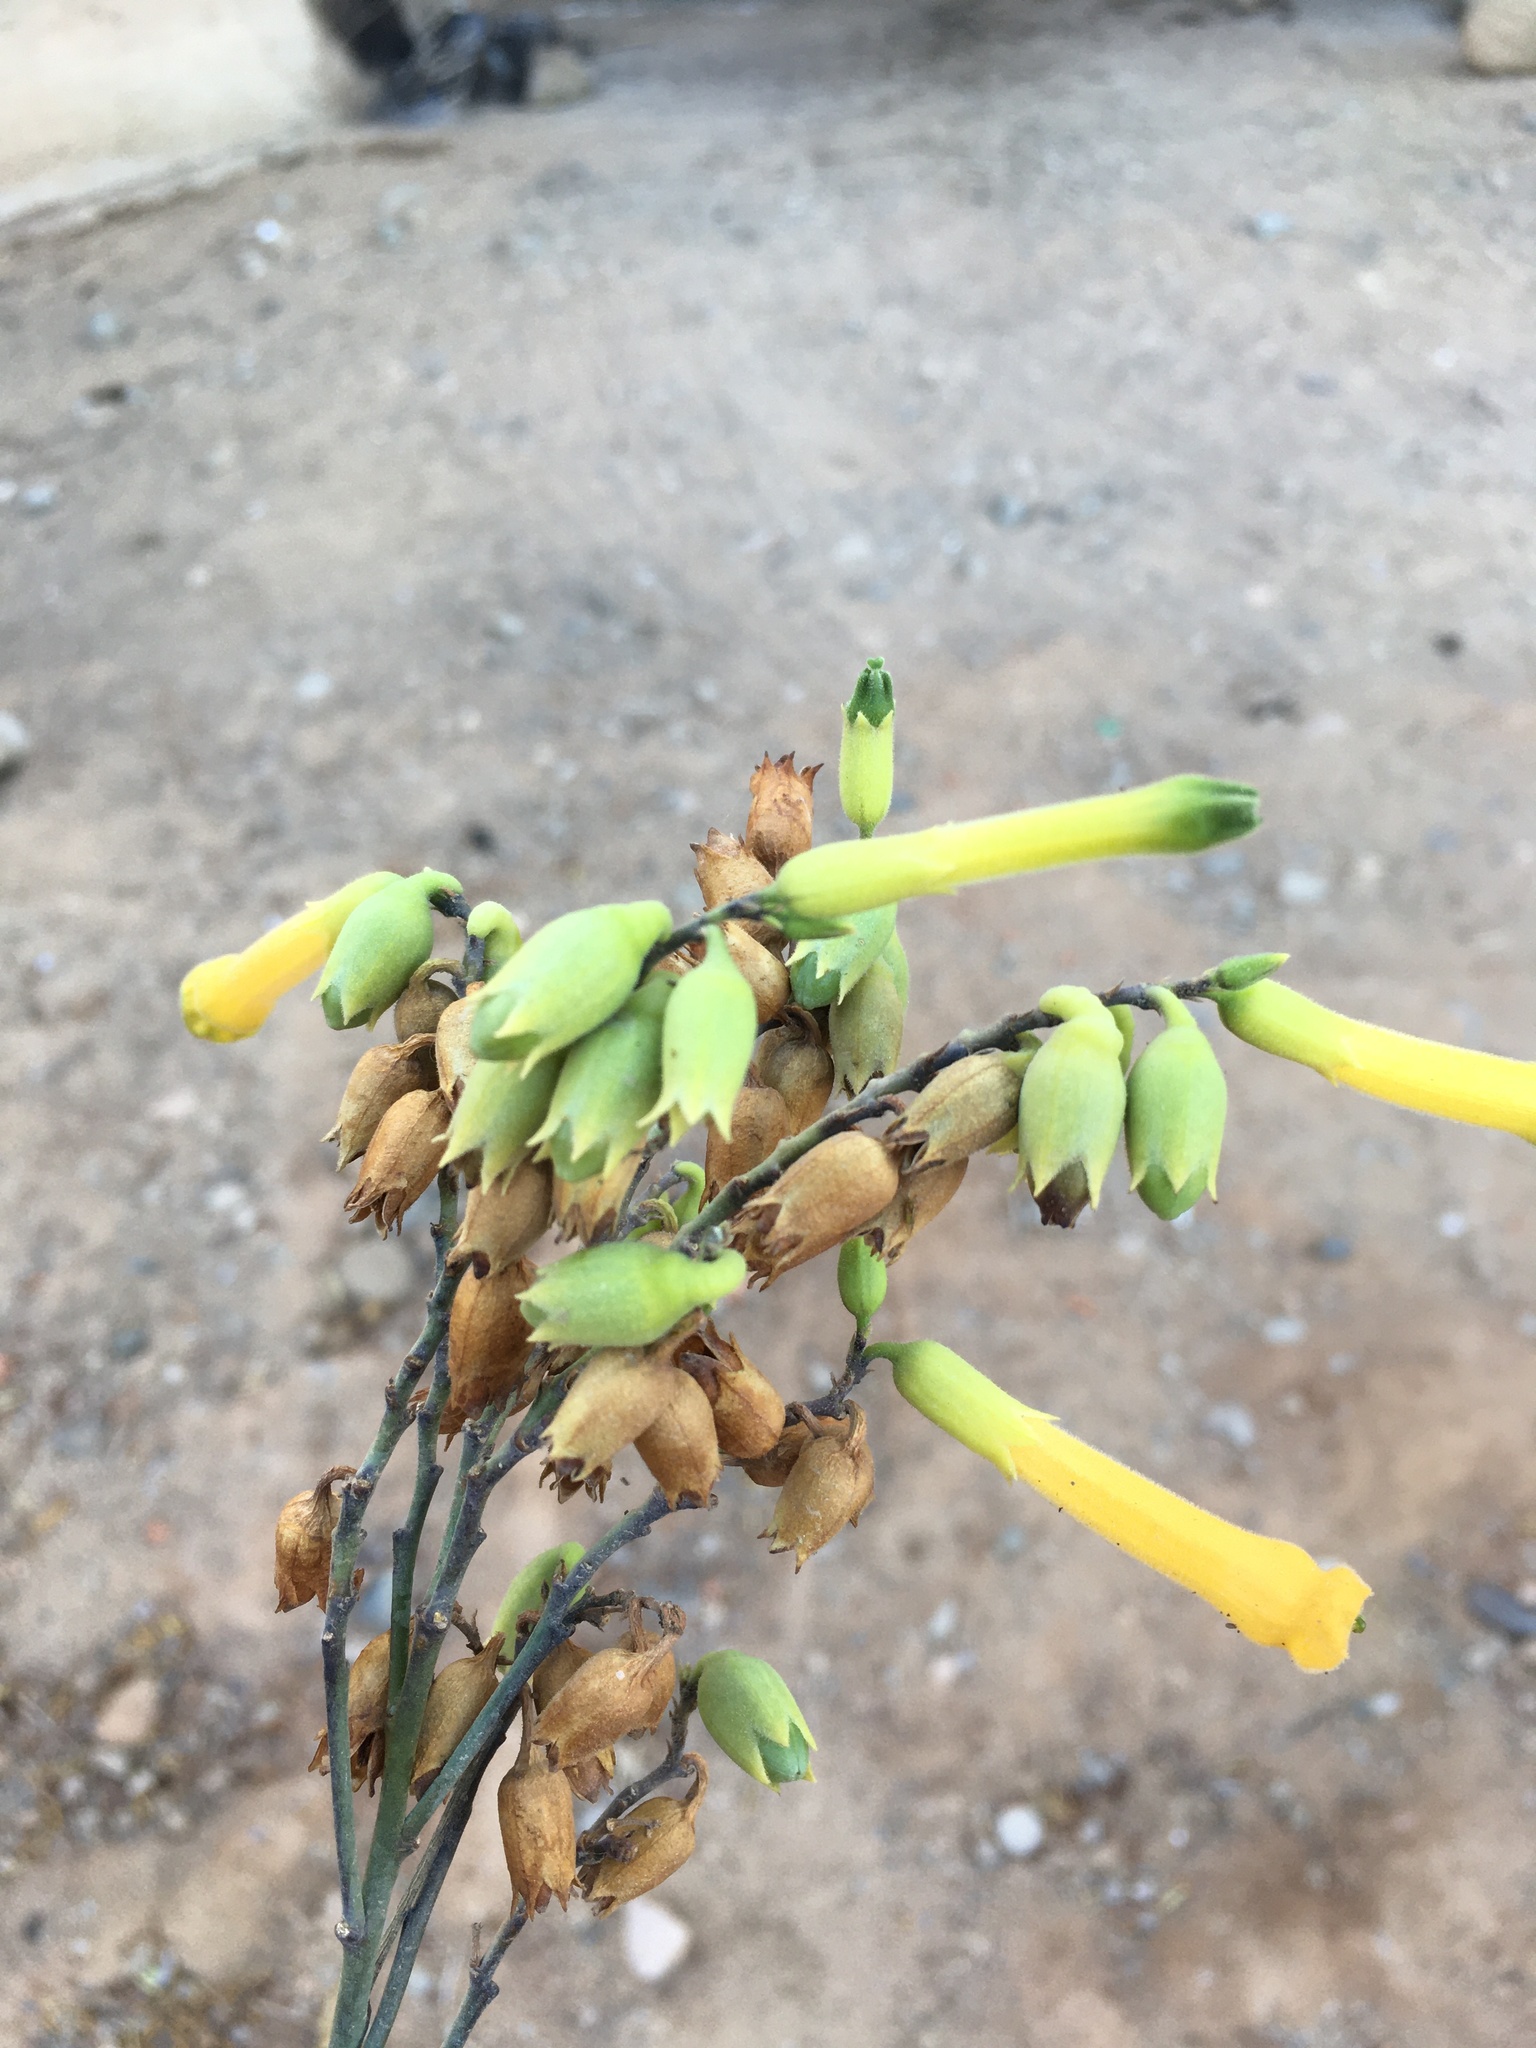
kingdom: Plantae
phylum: Tracheophyta
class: Magnoliopsida
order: Solanales
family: Solanaceae
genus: Nicotiana
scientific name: Nicotiana glauca
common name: Tree tobacco
